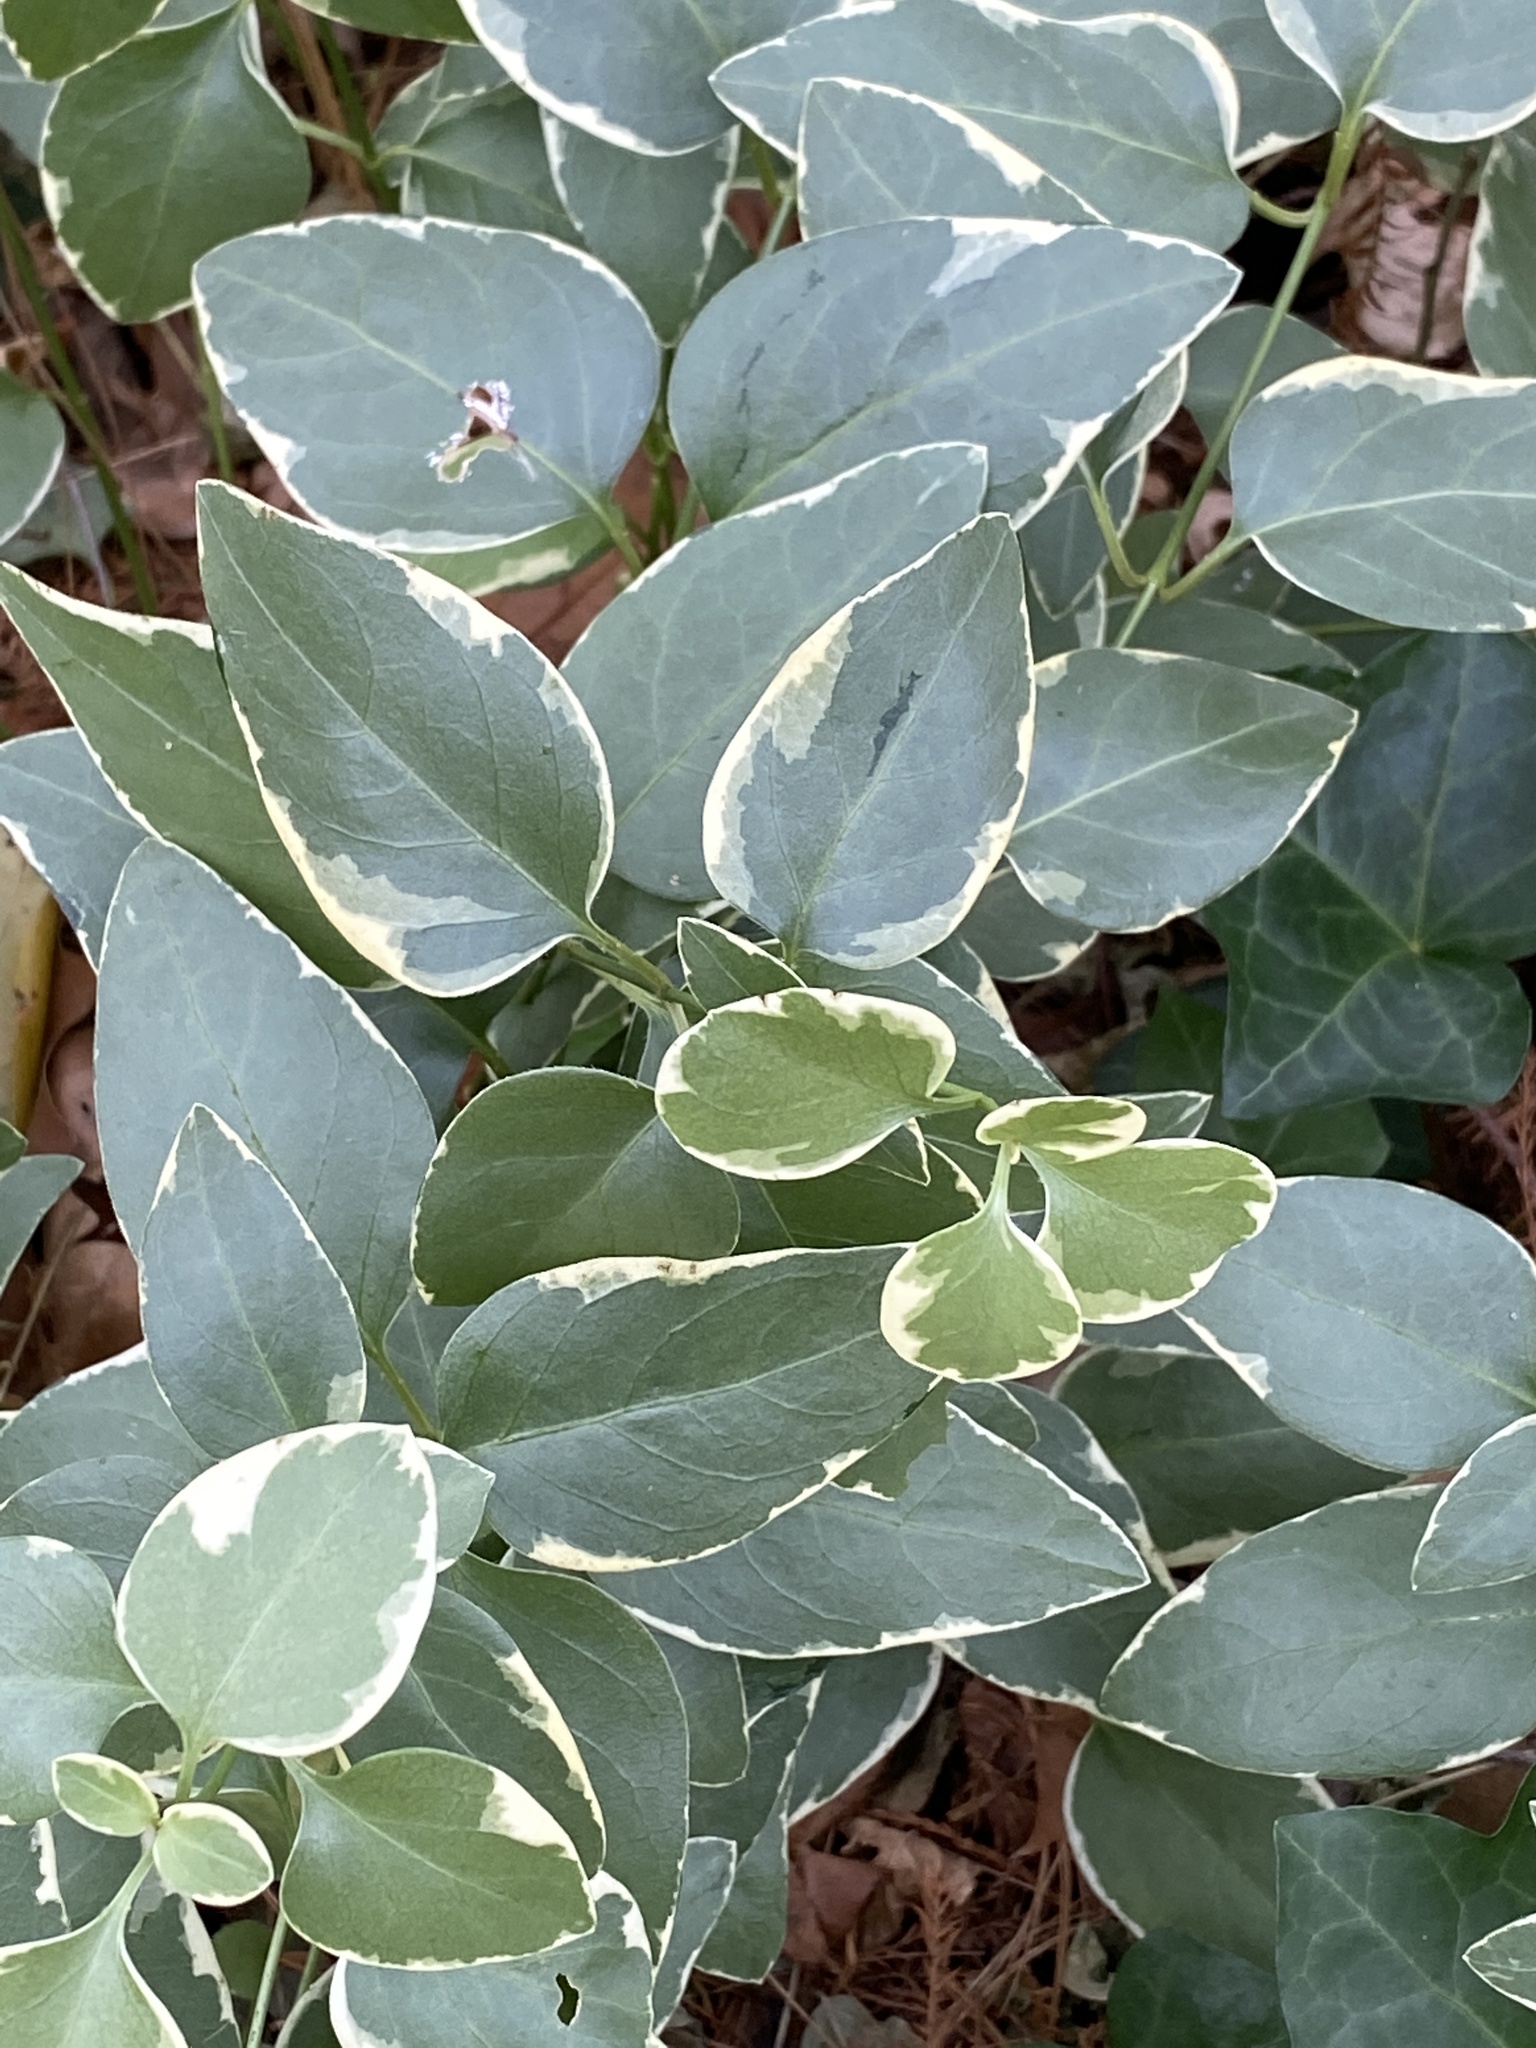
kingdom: Plantae
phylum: Tracheophyta
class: Magnoliopsida
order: Gentianales
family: Apocynaceae
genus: Vinca
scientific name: Vinca major
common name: Greater periwinkle
